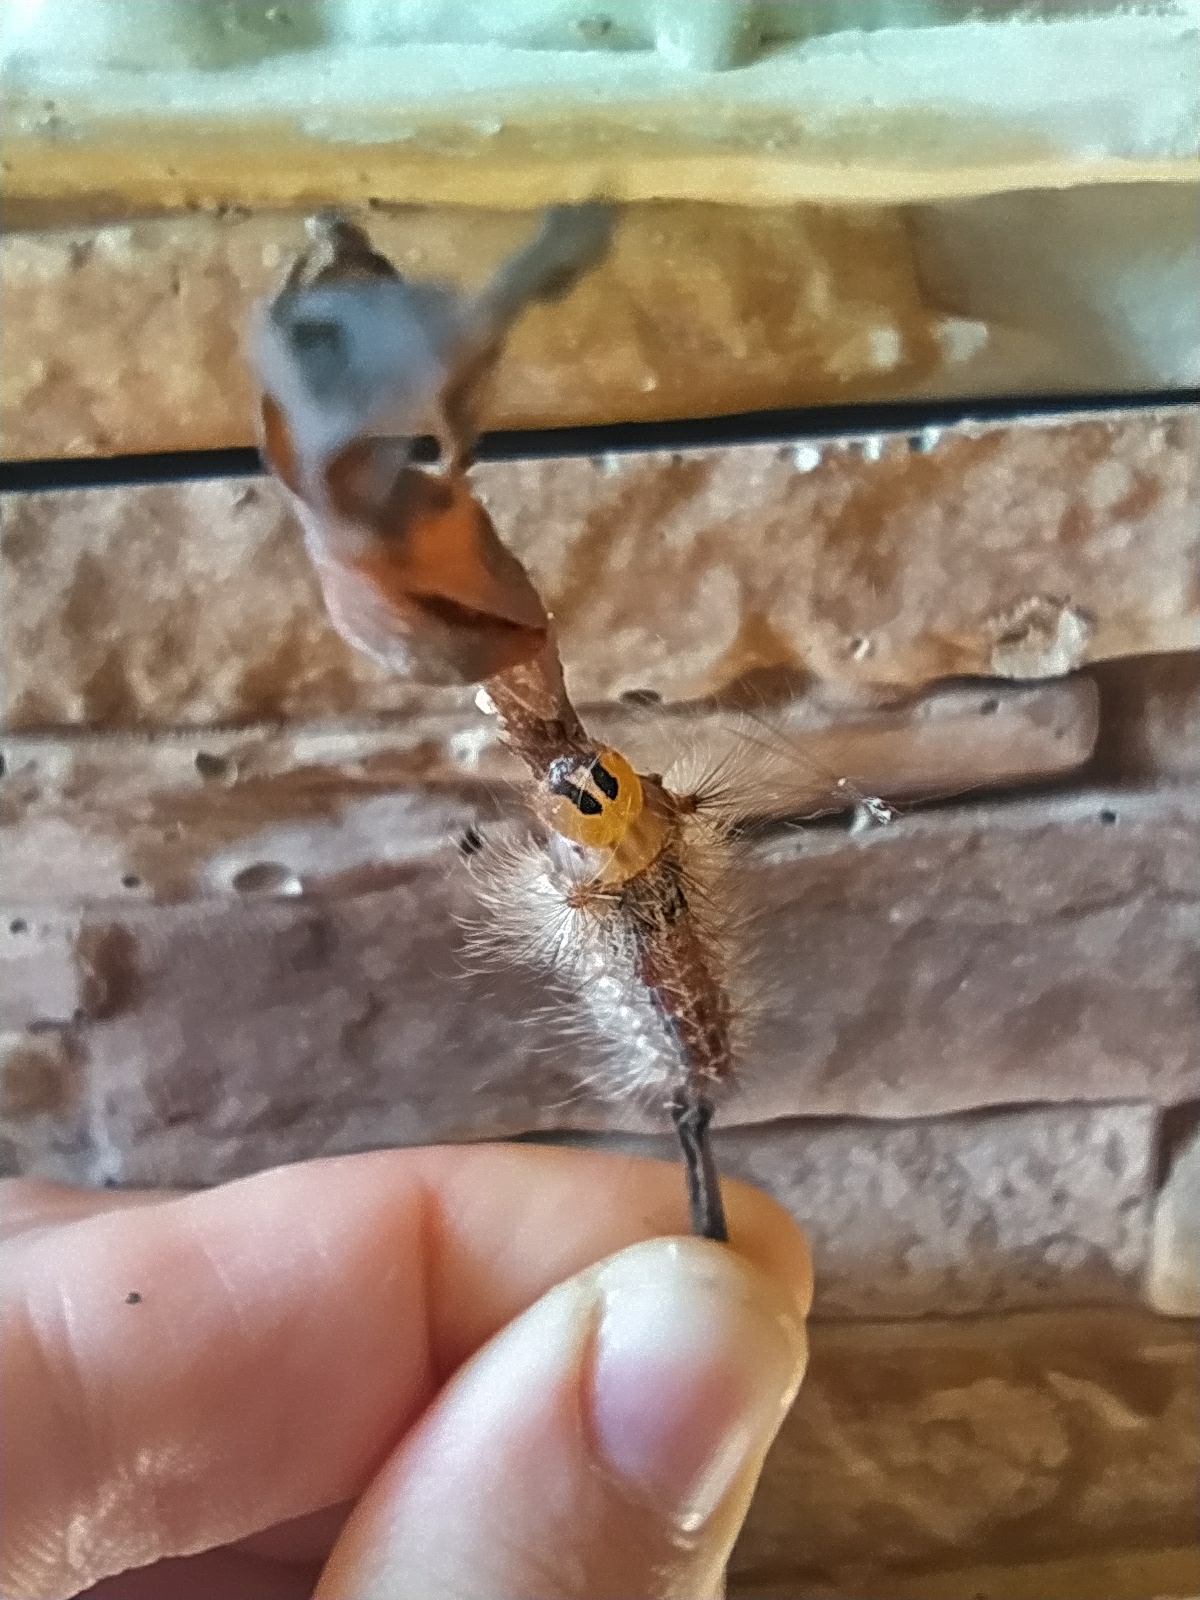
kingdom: Animalia
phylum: Arthropoda
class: Insecta
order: Lepidoptera
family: Erebidae
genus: Lymantria
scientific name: Lymantria dispar
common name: Gypsy moth
